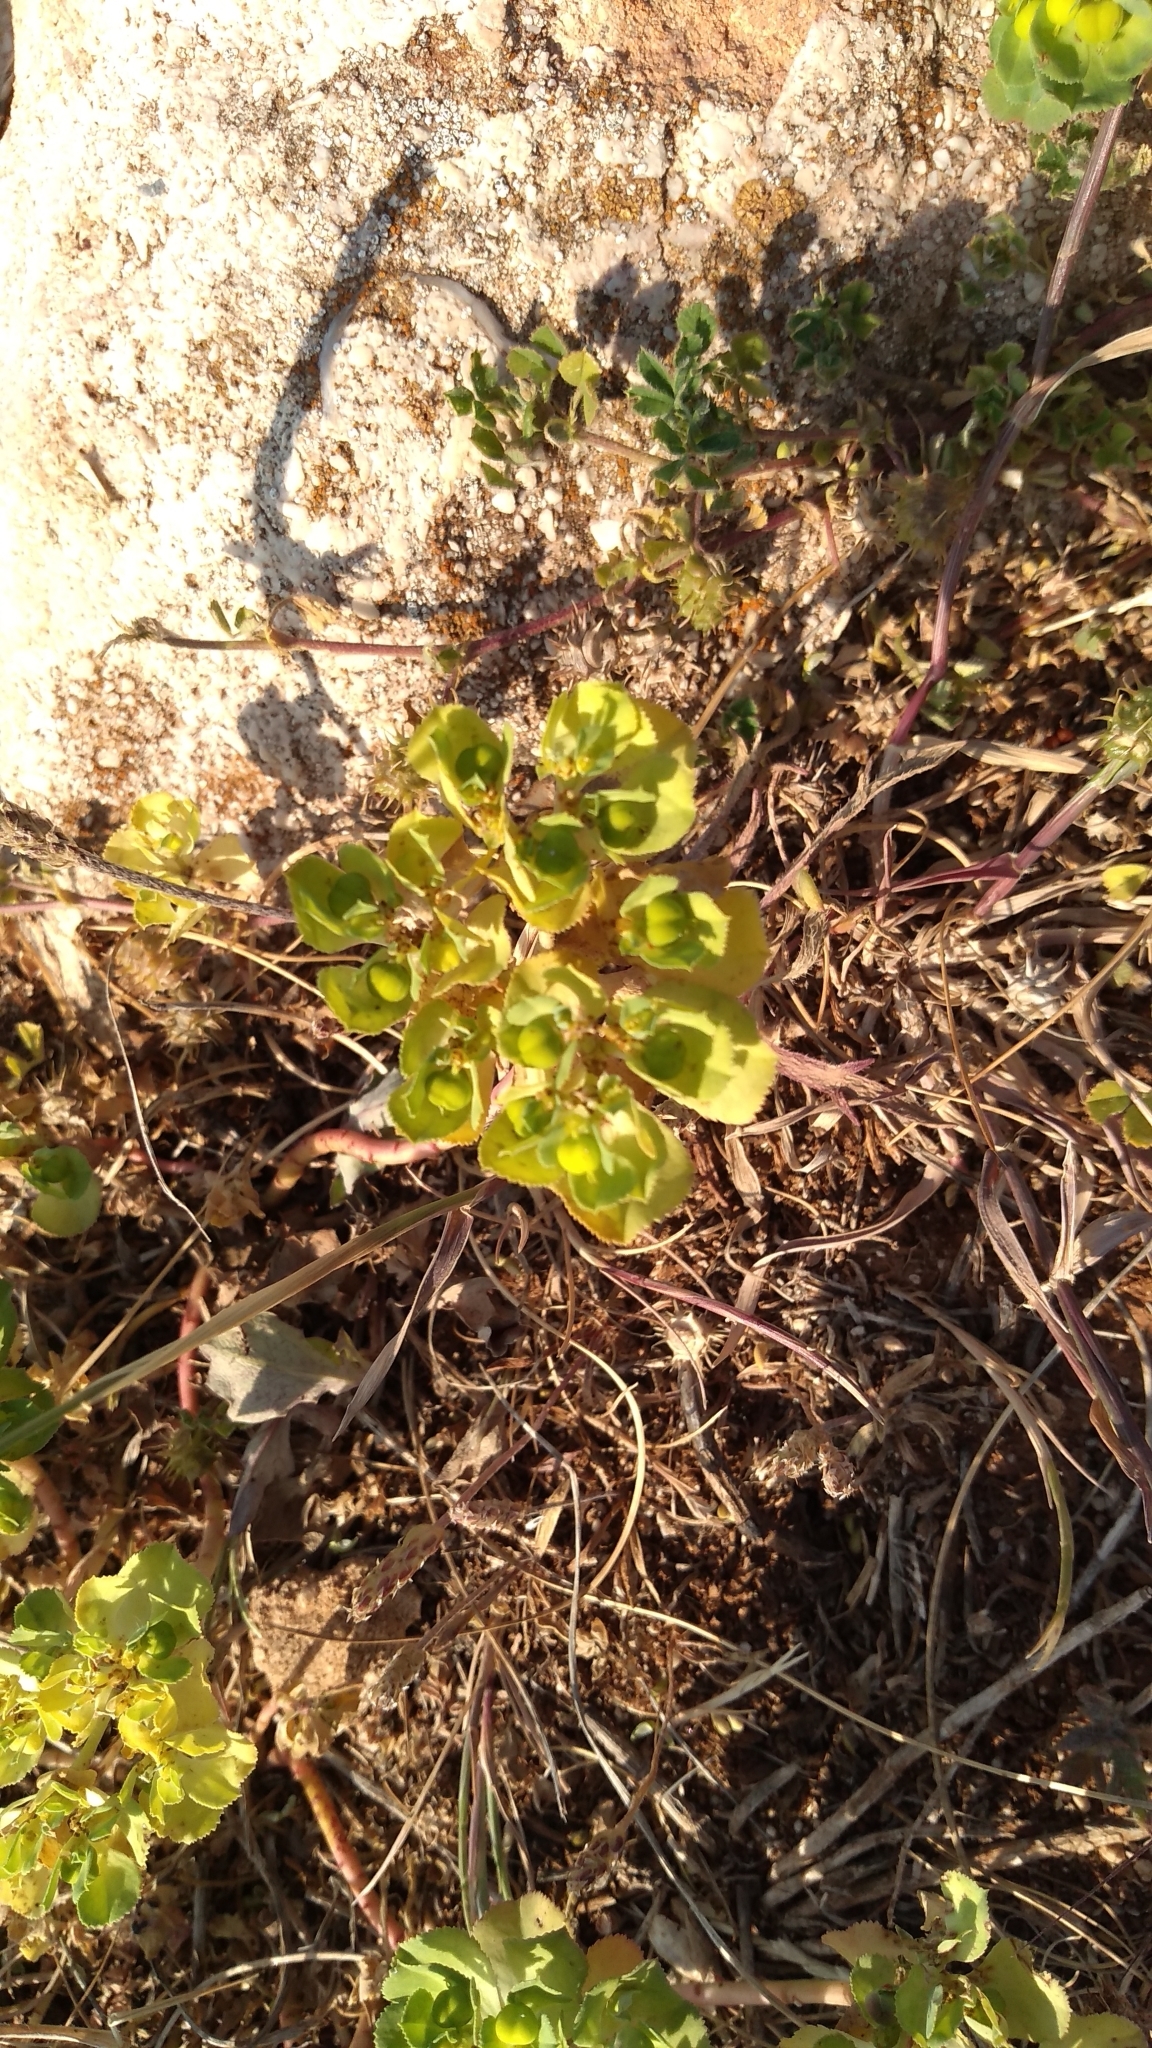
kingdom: Plantae
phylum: Tracheophyta
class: Magnoliopsida
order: Malpighiales
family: Euphorbiaceae
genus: Euphorbia
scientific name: Euphorbia helioscopia
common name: Sun spurge
